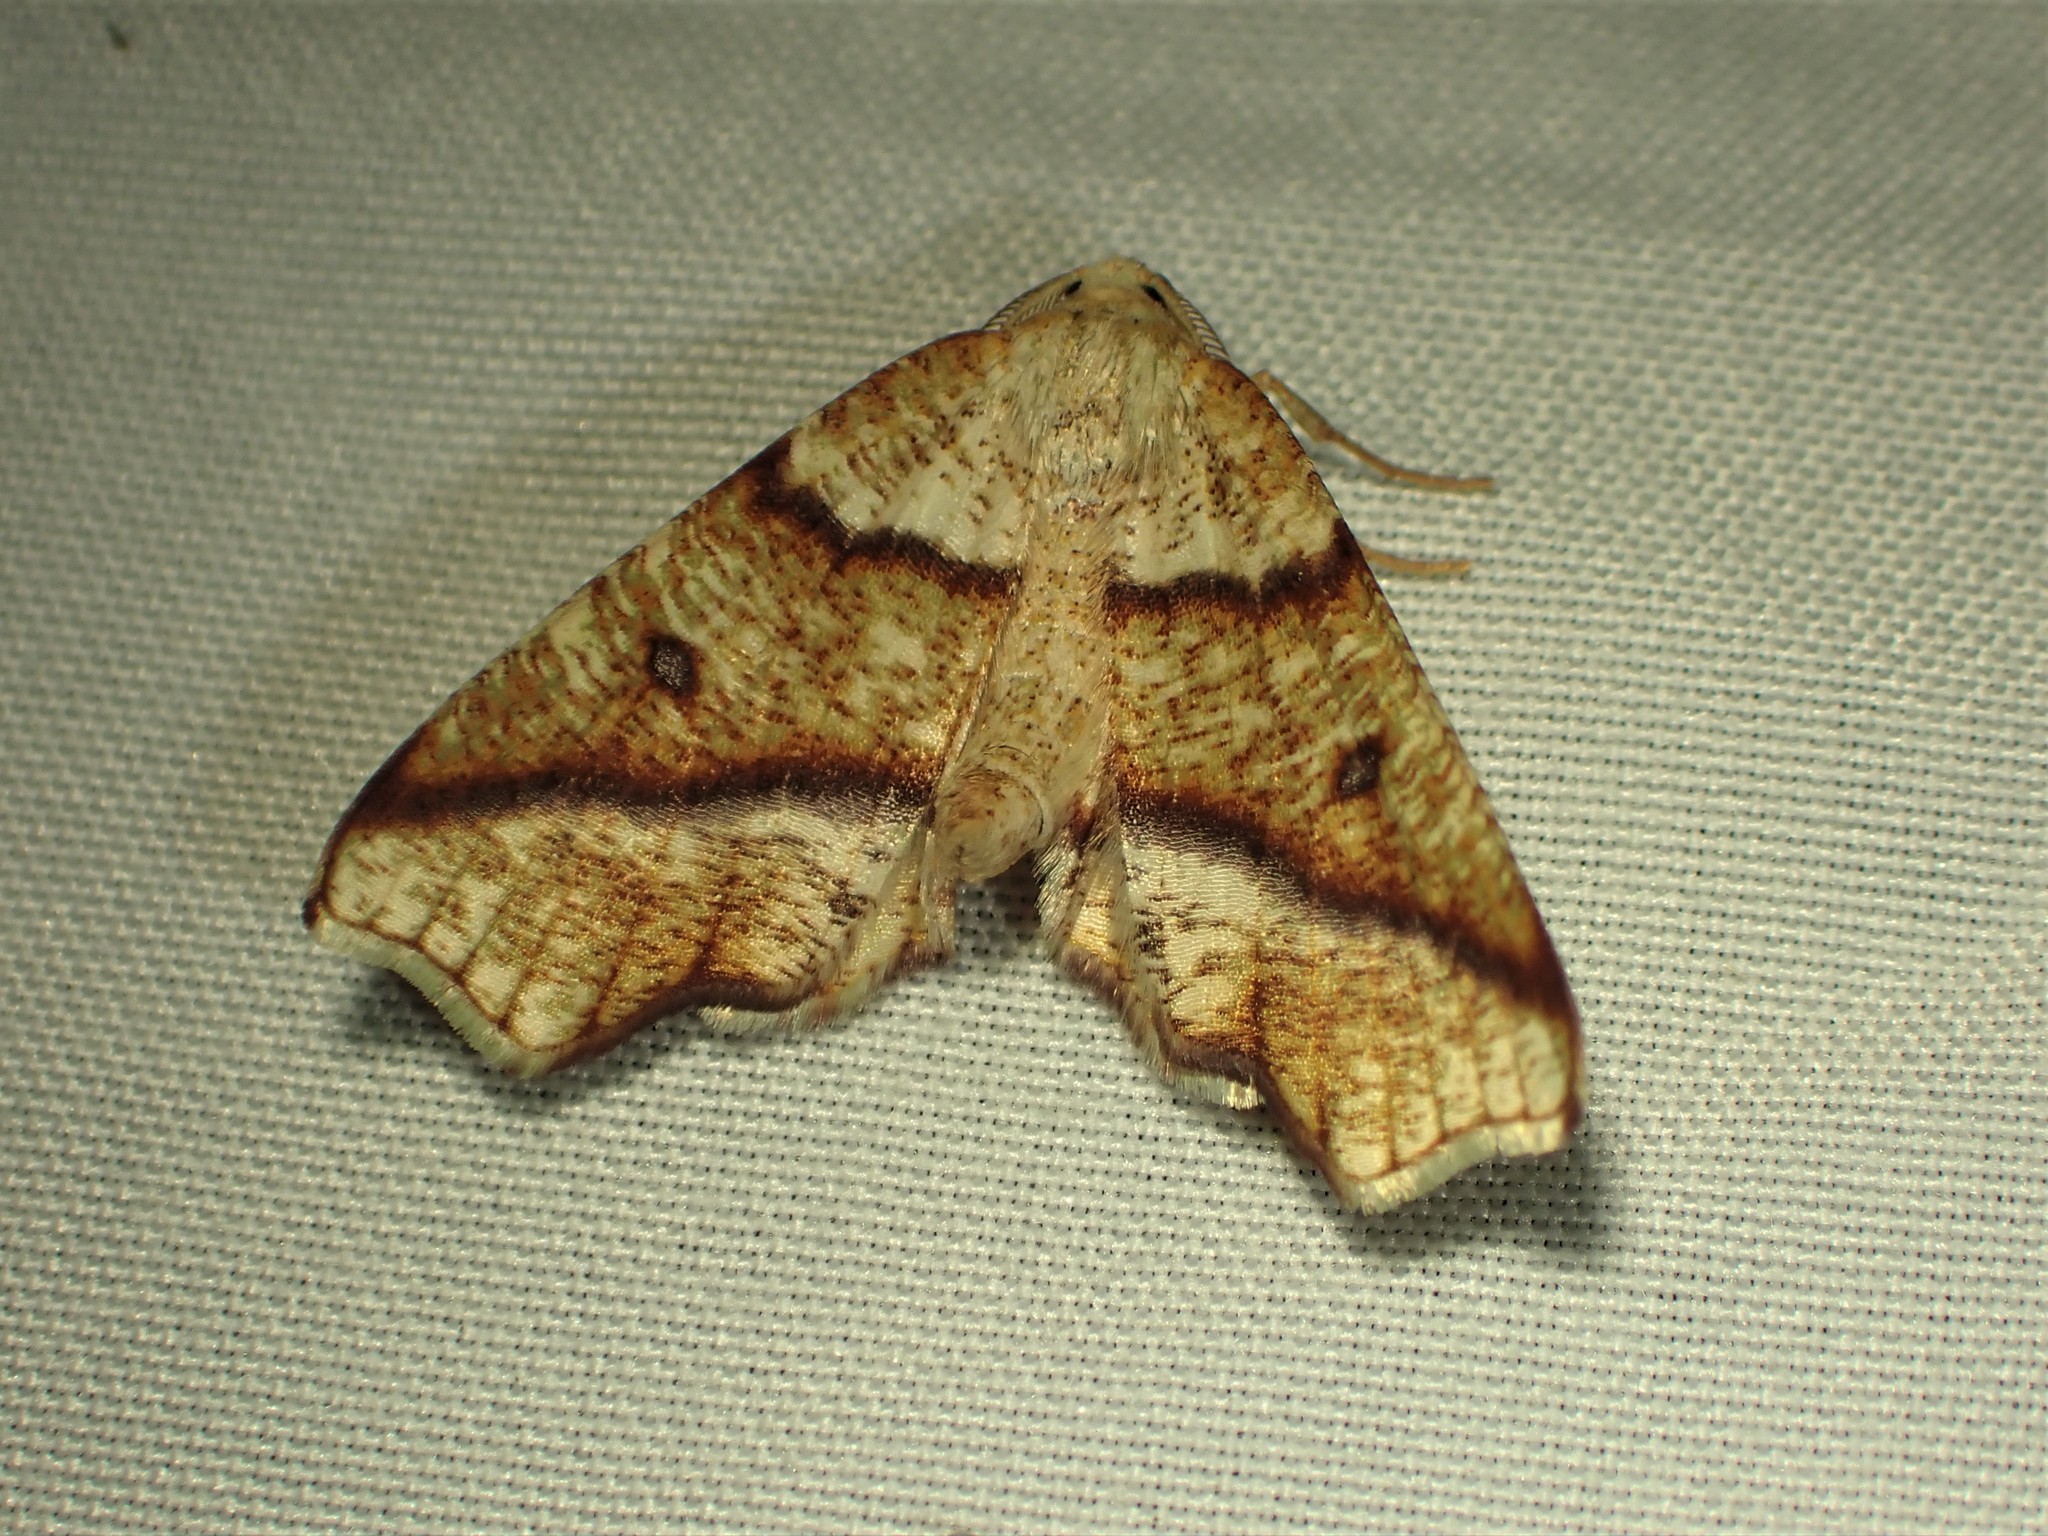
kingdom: Animalia
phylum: Arthropoda
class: Insecta
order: Lepidoptera
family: Geometridae
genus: Plagodis
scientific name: Plagodis alcoolaria
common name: Hollow-spotted plagodis
